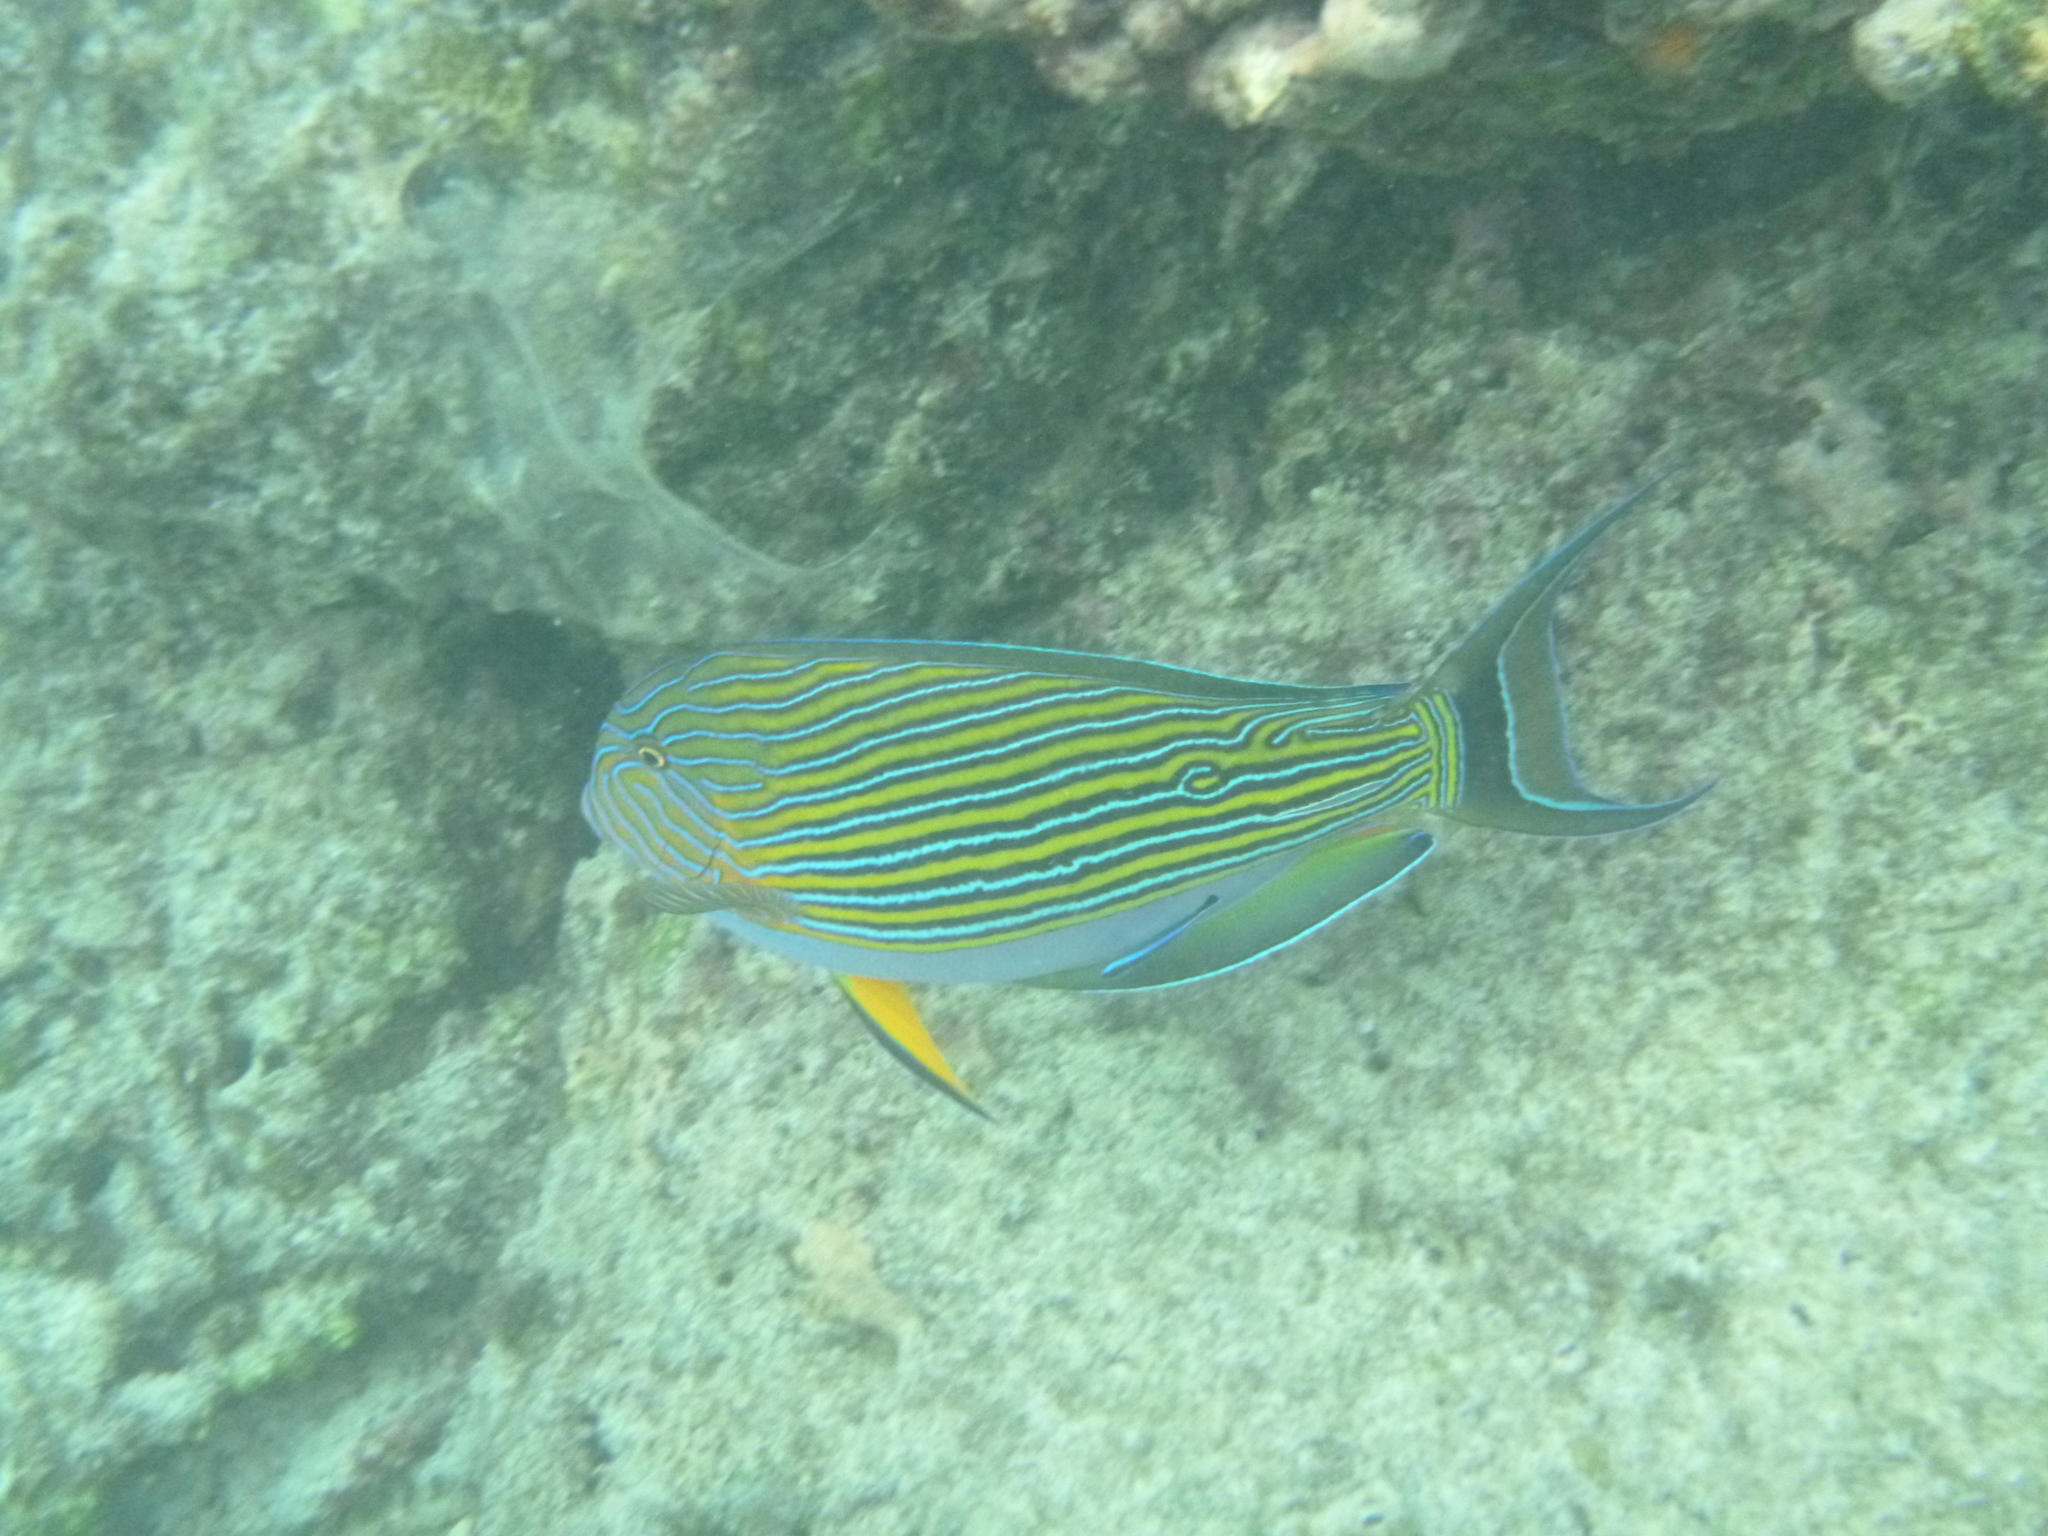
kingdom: Animalia
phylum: Chordata
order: Perciformes
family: Acanthuridae
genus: Acanthurus
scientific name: Acanthurus lineatus
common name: Striped surgeonfish
